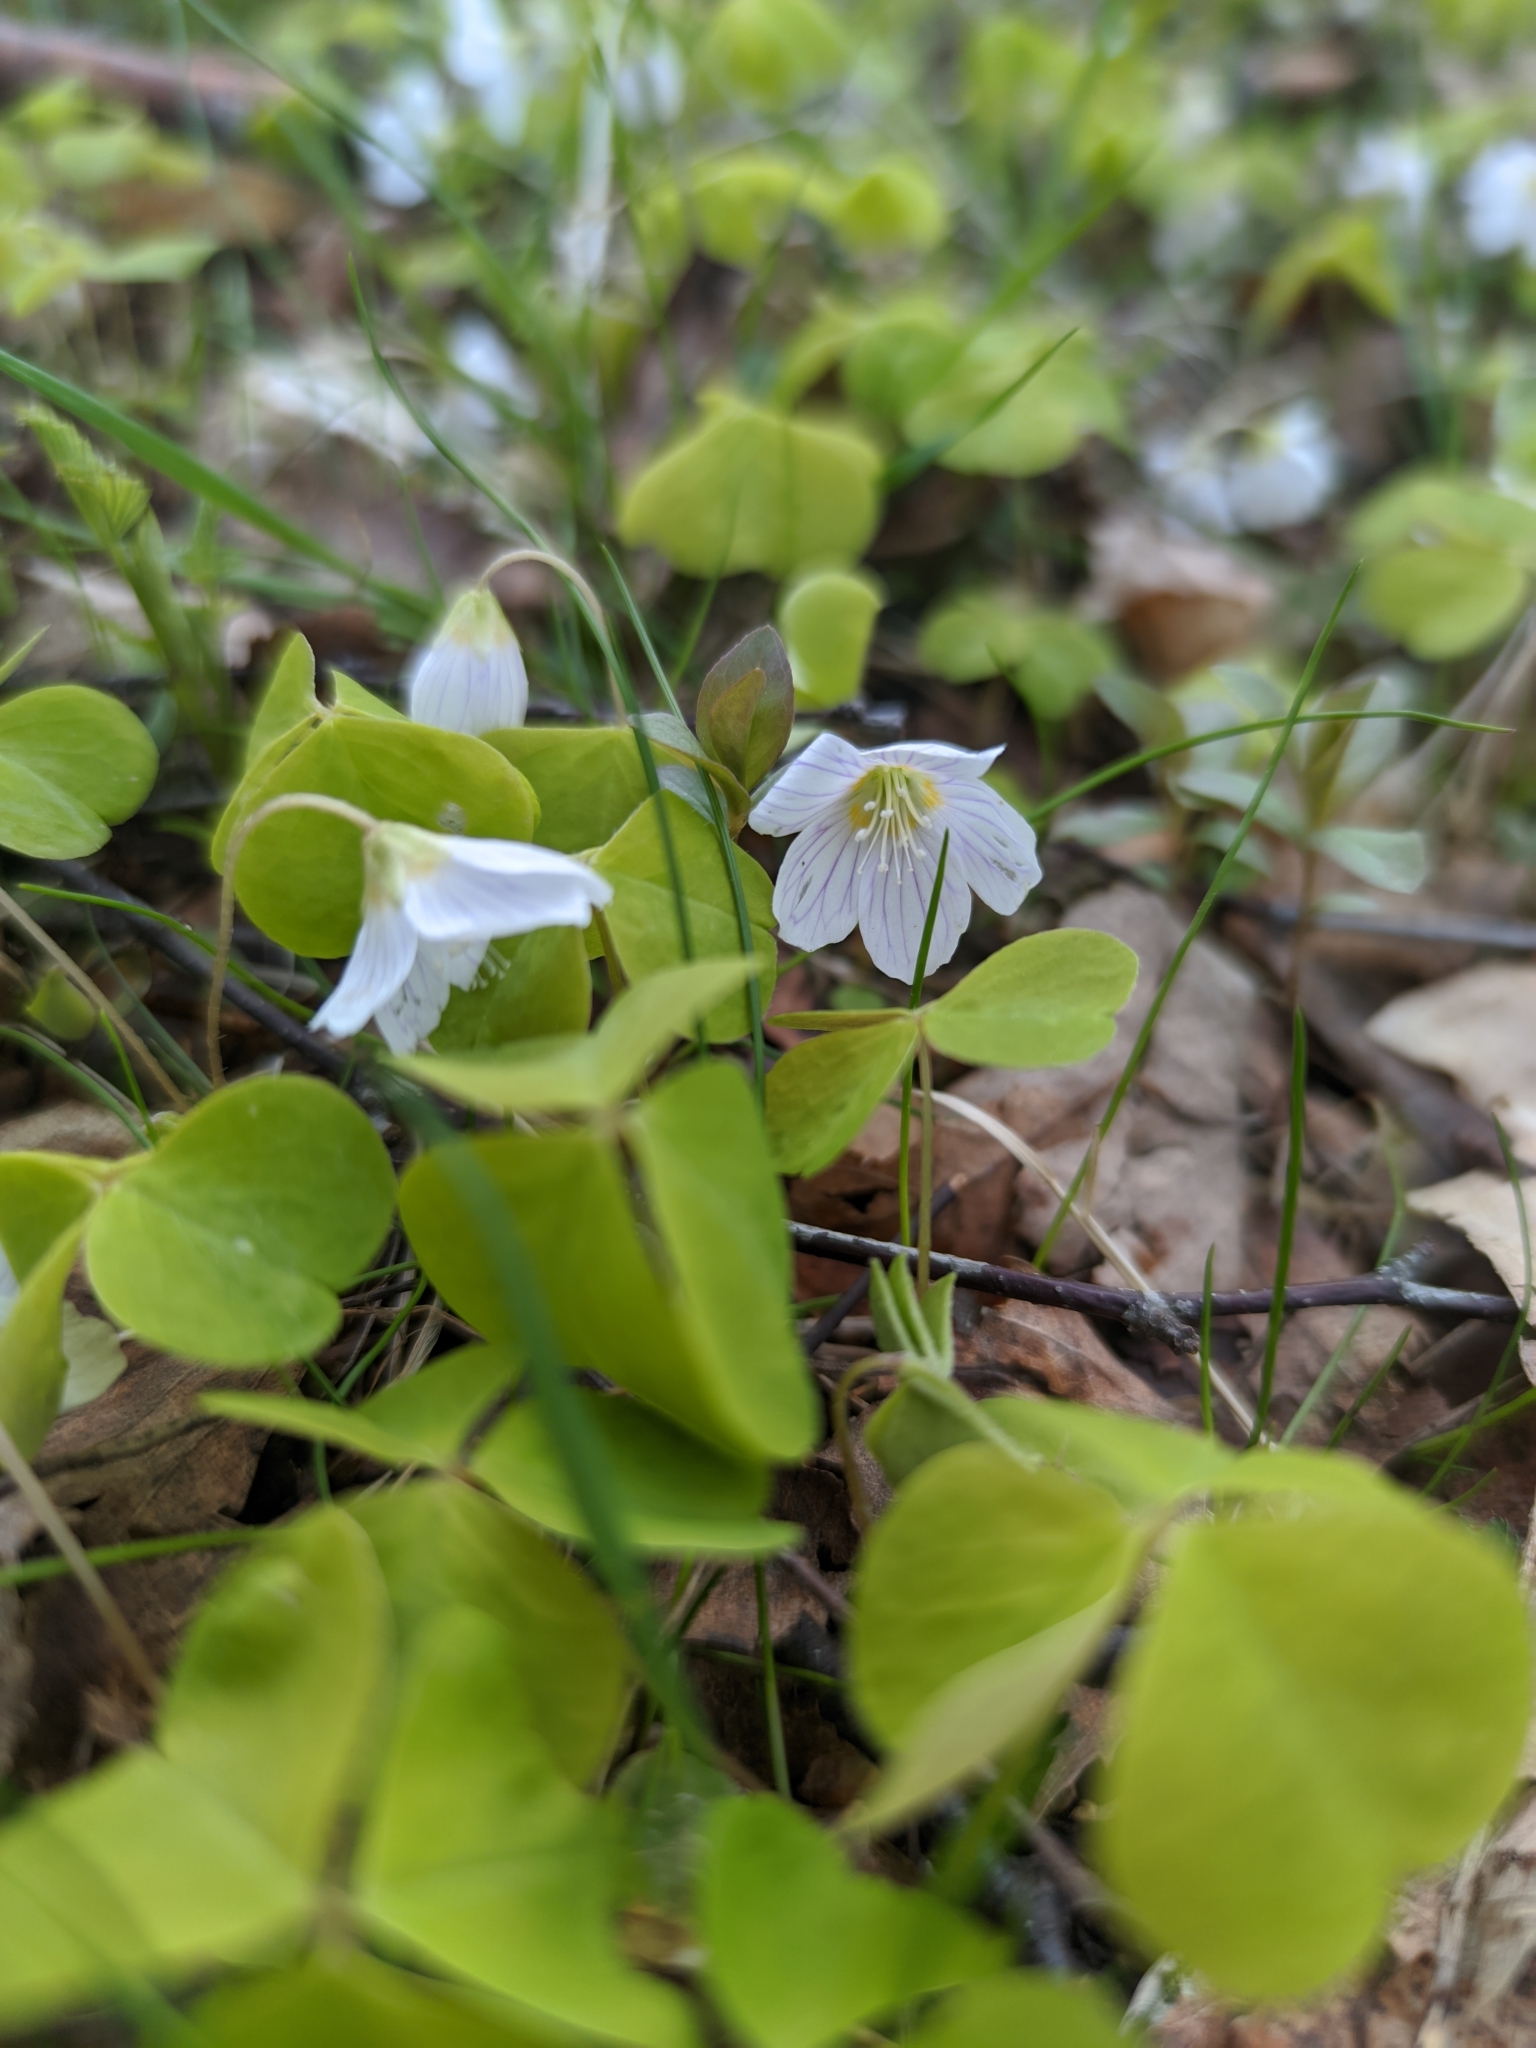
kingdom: Plantae
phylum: Tracheophyta
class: Magnoliopsida
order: Oxalidales
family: Oxalidaceae
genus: Oxalis
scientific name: Oxalis acetosella
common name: Wood-sorrel
